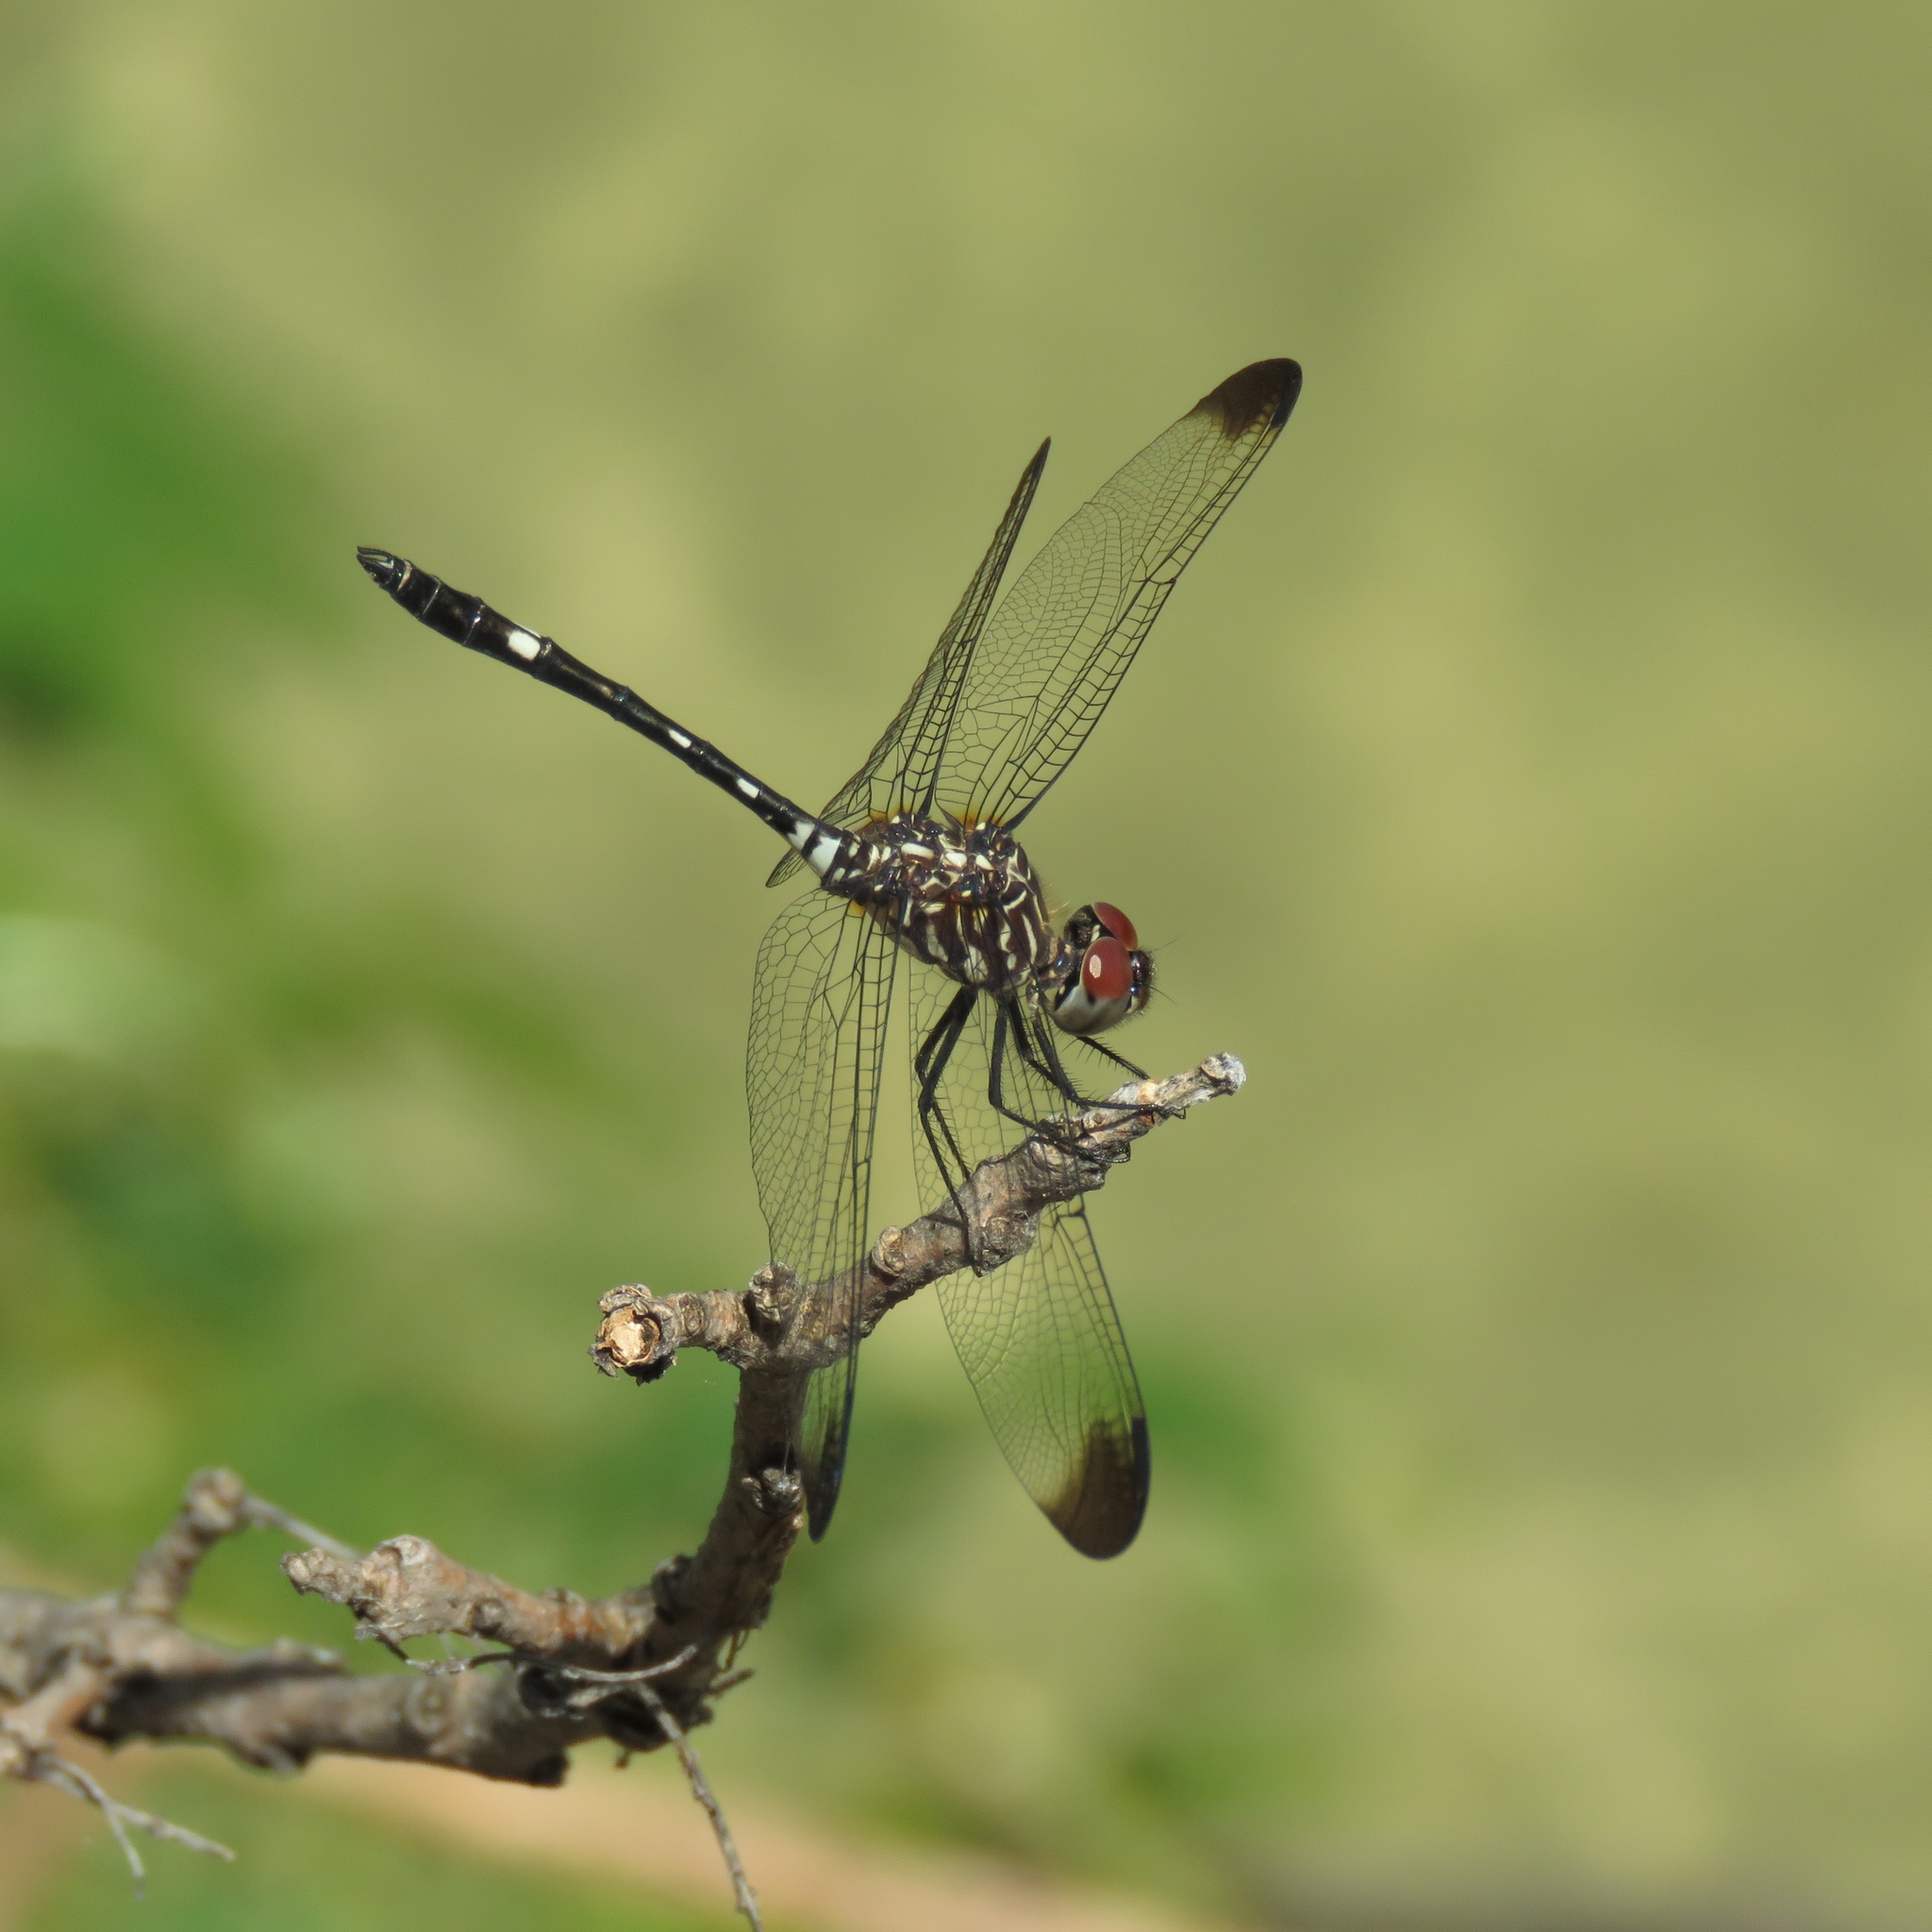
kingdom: Animalia
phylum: Arthropoda
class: Insecta
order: Odonata
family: Libellulidae
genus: Dythemis
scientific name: Dythemis velox
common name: Swift setwing
